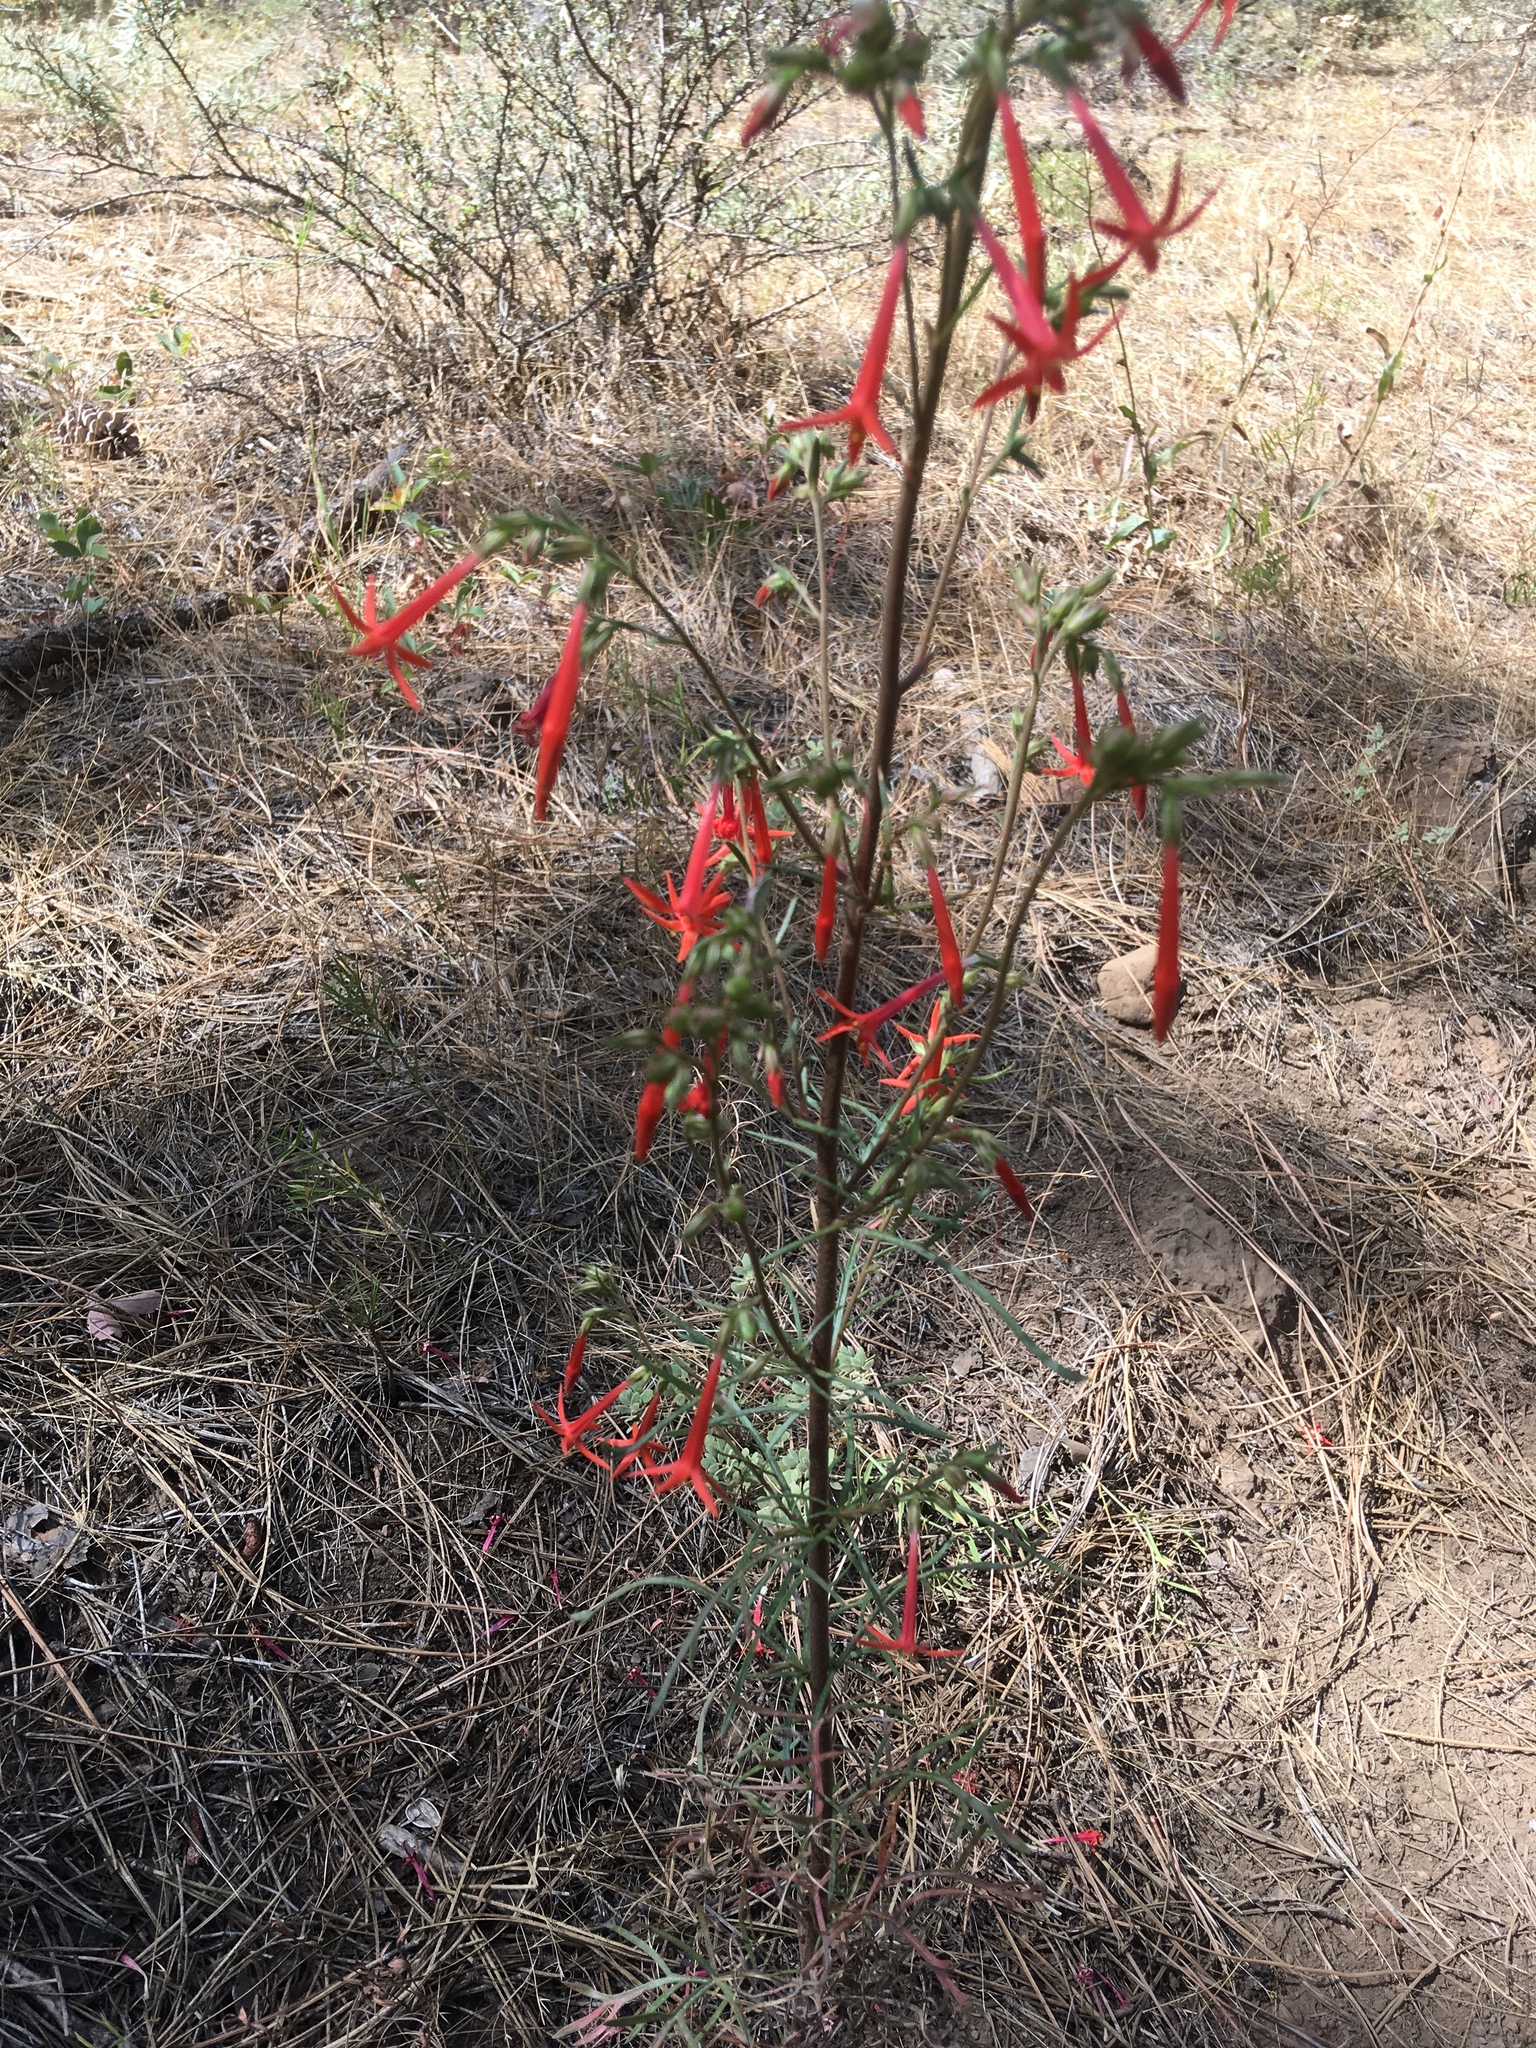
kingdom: Plantae
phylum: Tracheophyta
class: Magnoliopsida
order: Ericales
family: Polemoniaceae
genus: Ipomopsis
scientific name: Ipomopsis aggregata
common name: Scarlet gilia
